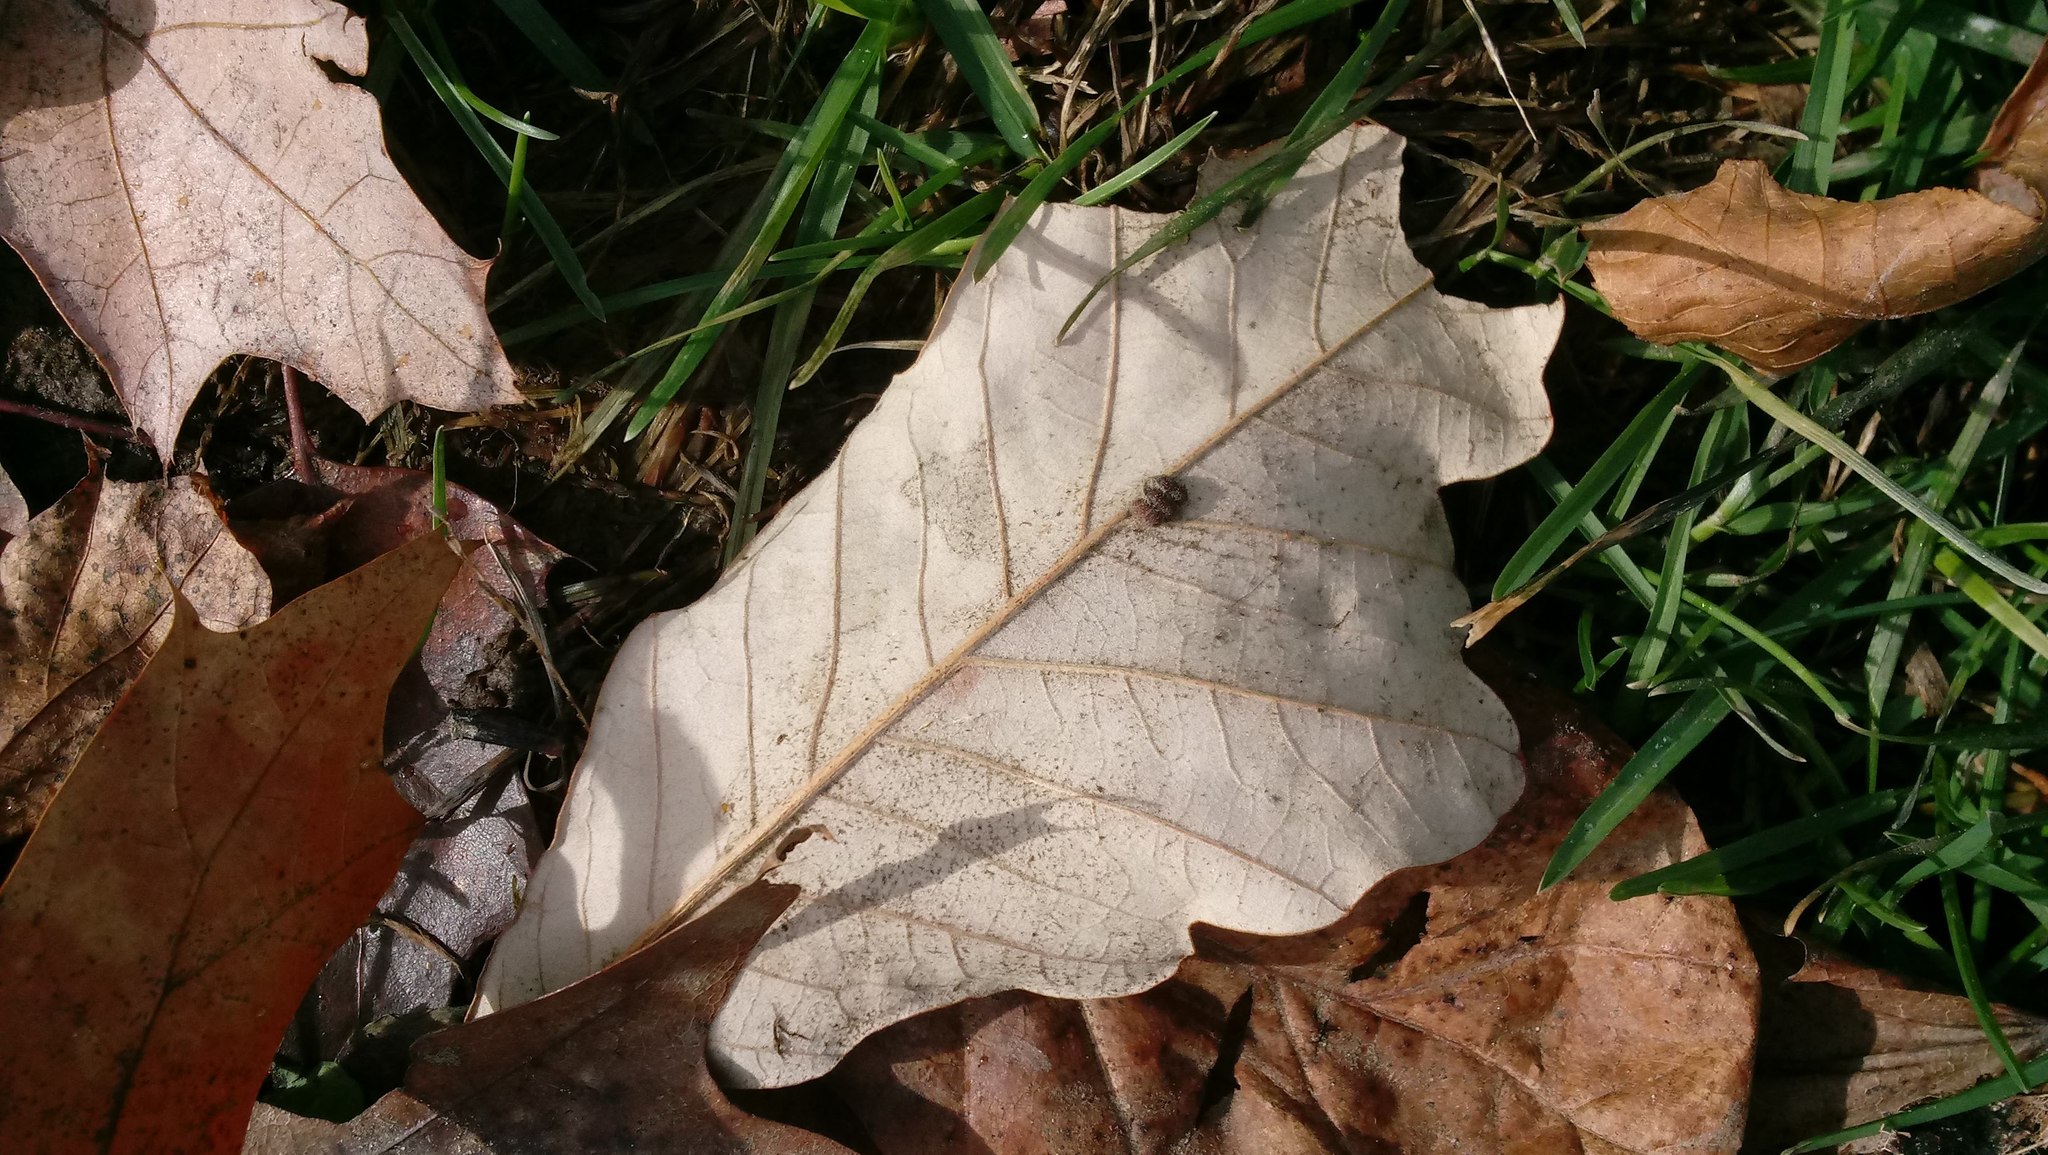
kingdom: Animalia
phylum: Arthropoda
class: Insecta
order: Hymenoptera
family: Cynipidae
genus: Andricus
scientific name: Andricus Druon ignotum
